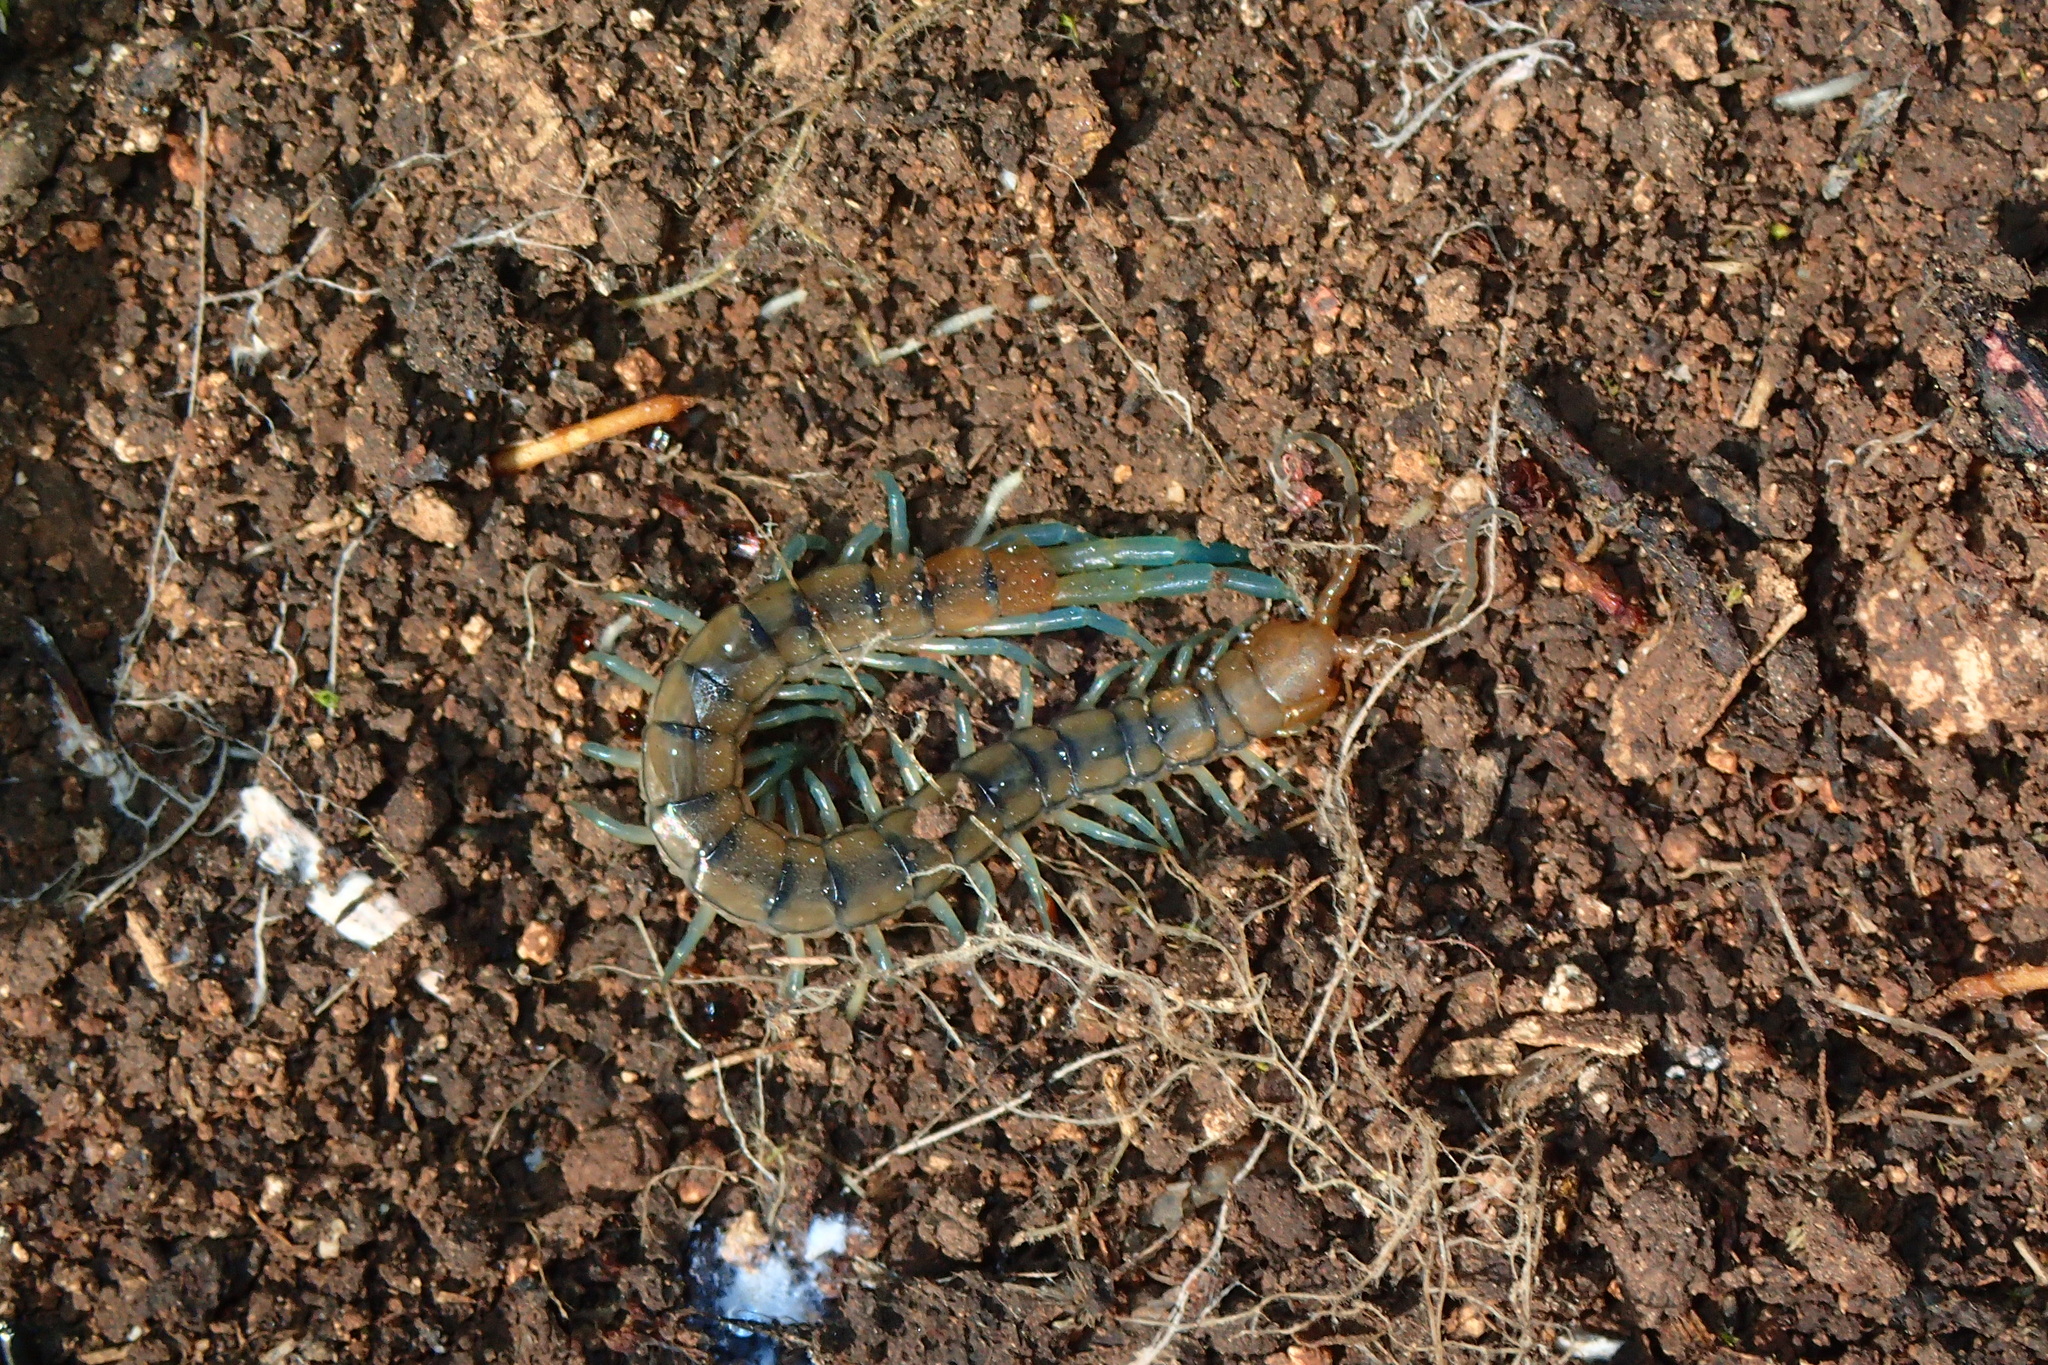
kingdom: Animalia
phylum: Arthropoda
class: Chilopoda
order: Scolopendromorpha
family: Scolopendridae
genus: Scolopendra
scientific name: Scolopendra cingulata
